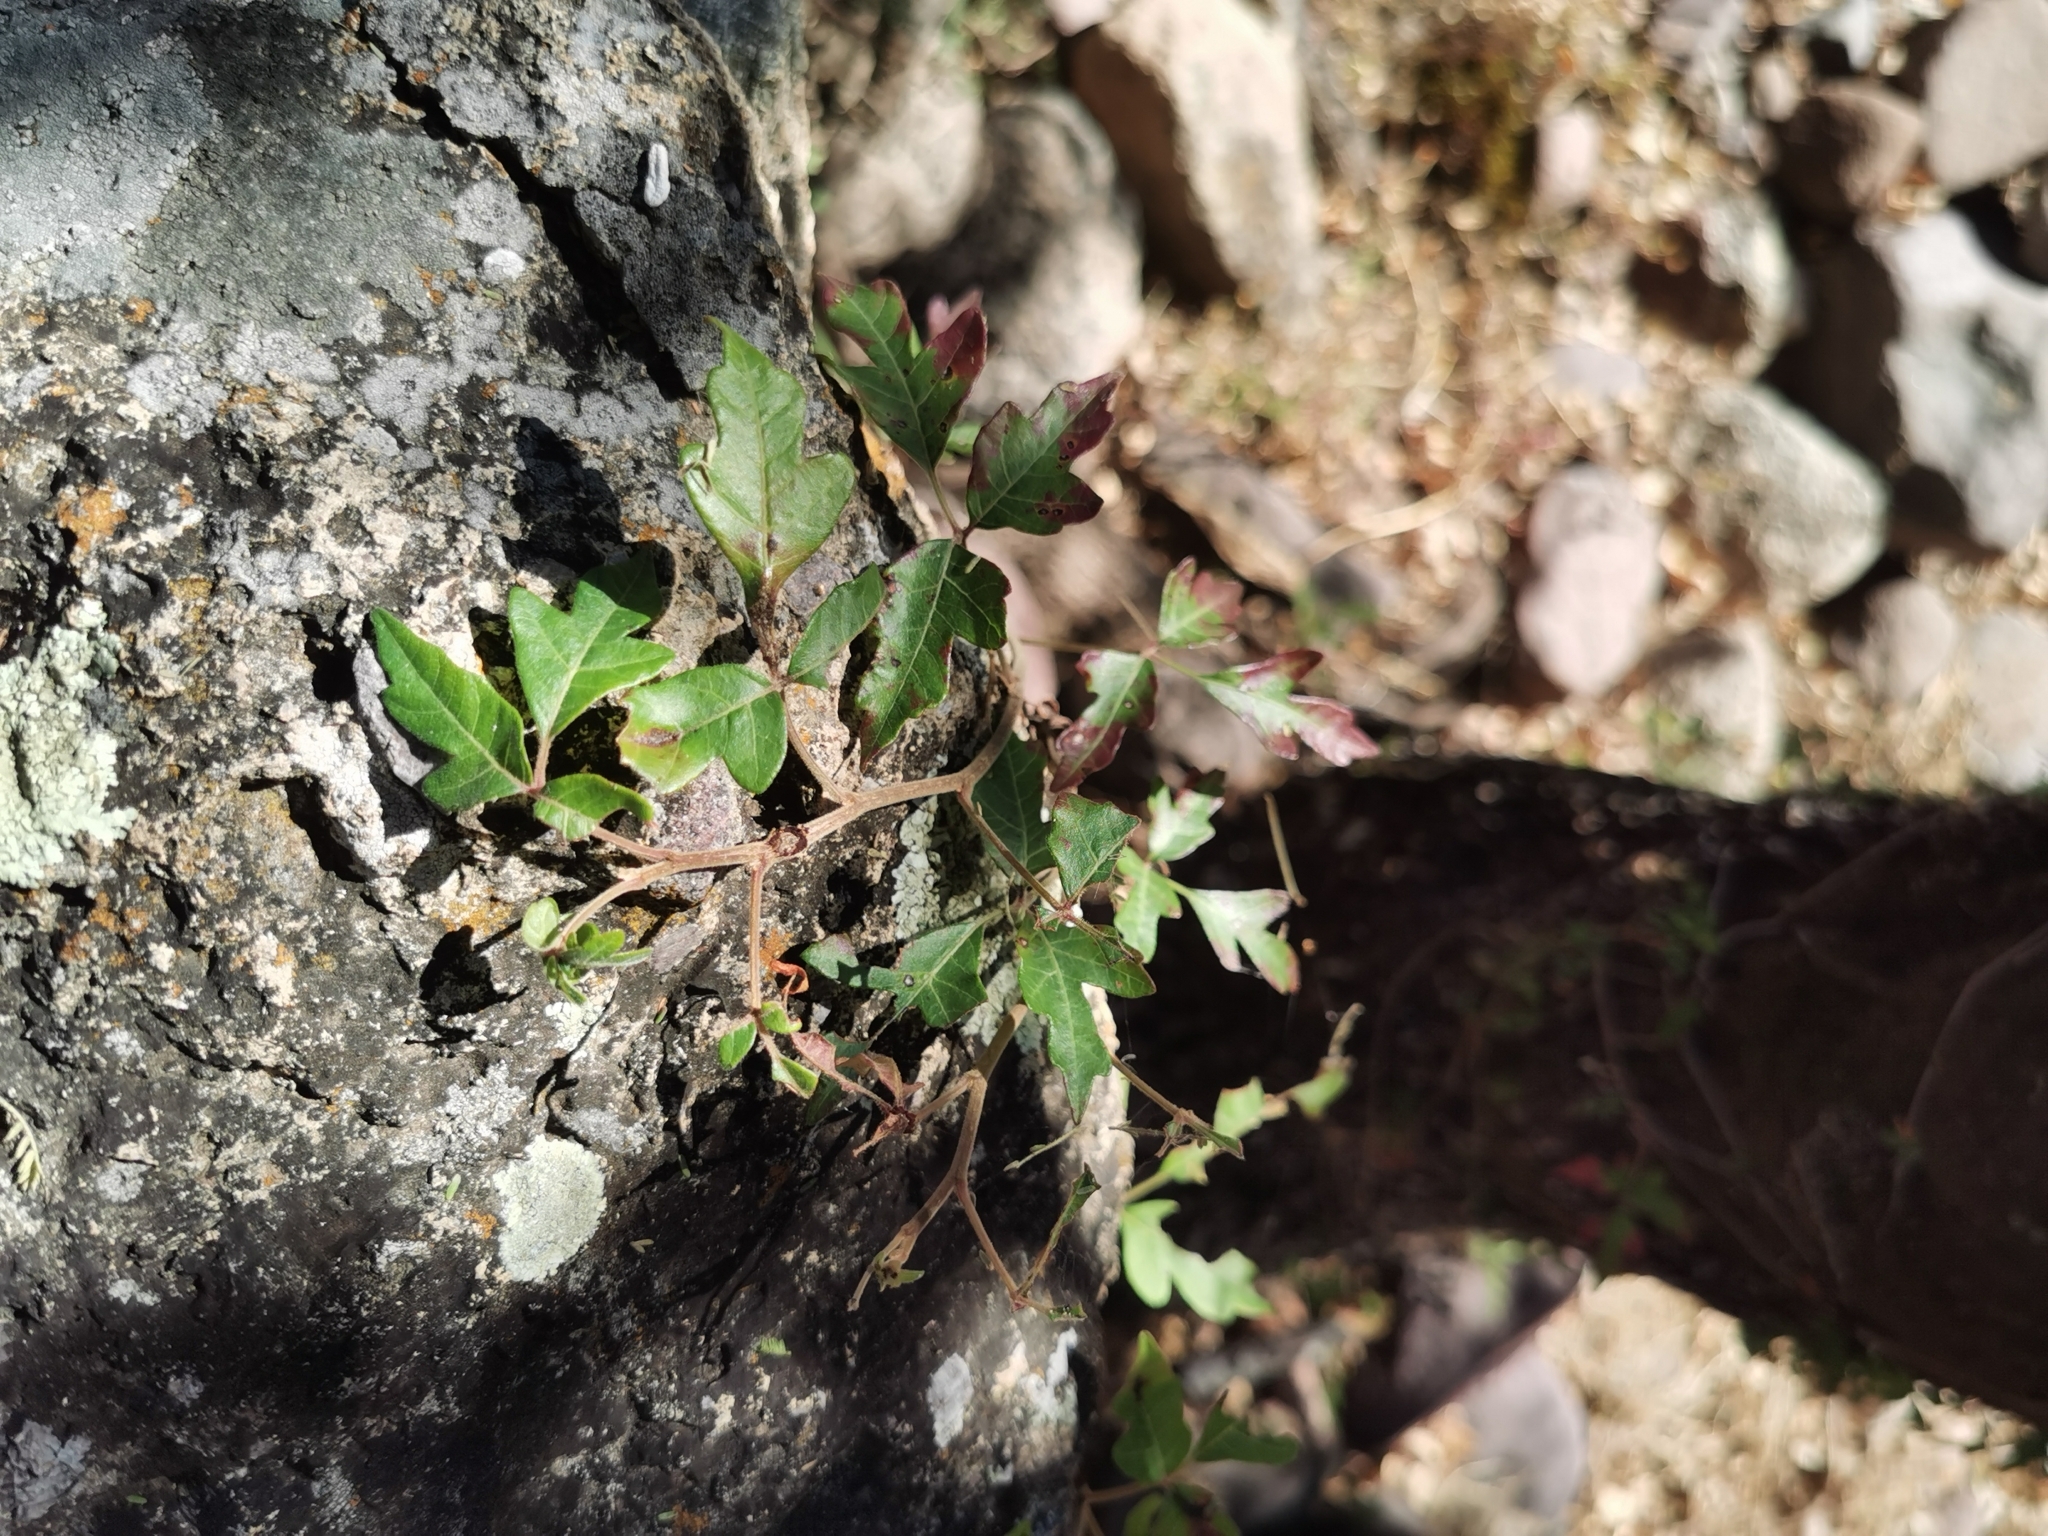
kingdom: Plantae
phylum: Tracheophyta
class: Magnoliopsida
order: Vitales
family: Vitaceae
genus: Cissus
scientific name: Cissus trifoliata
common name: Vine-sorrel
